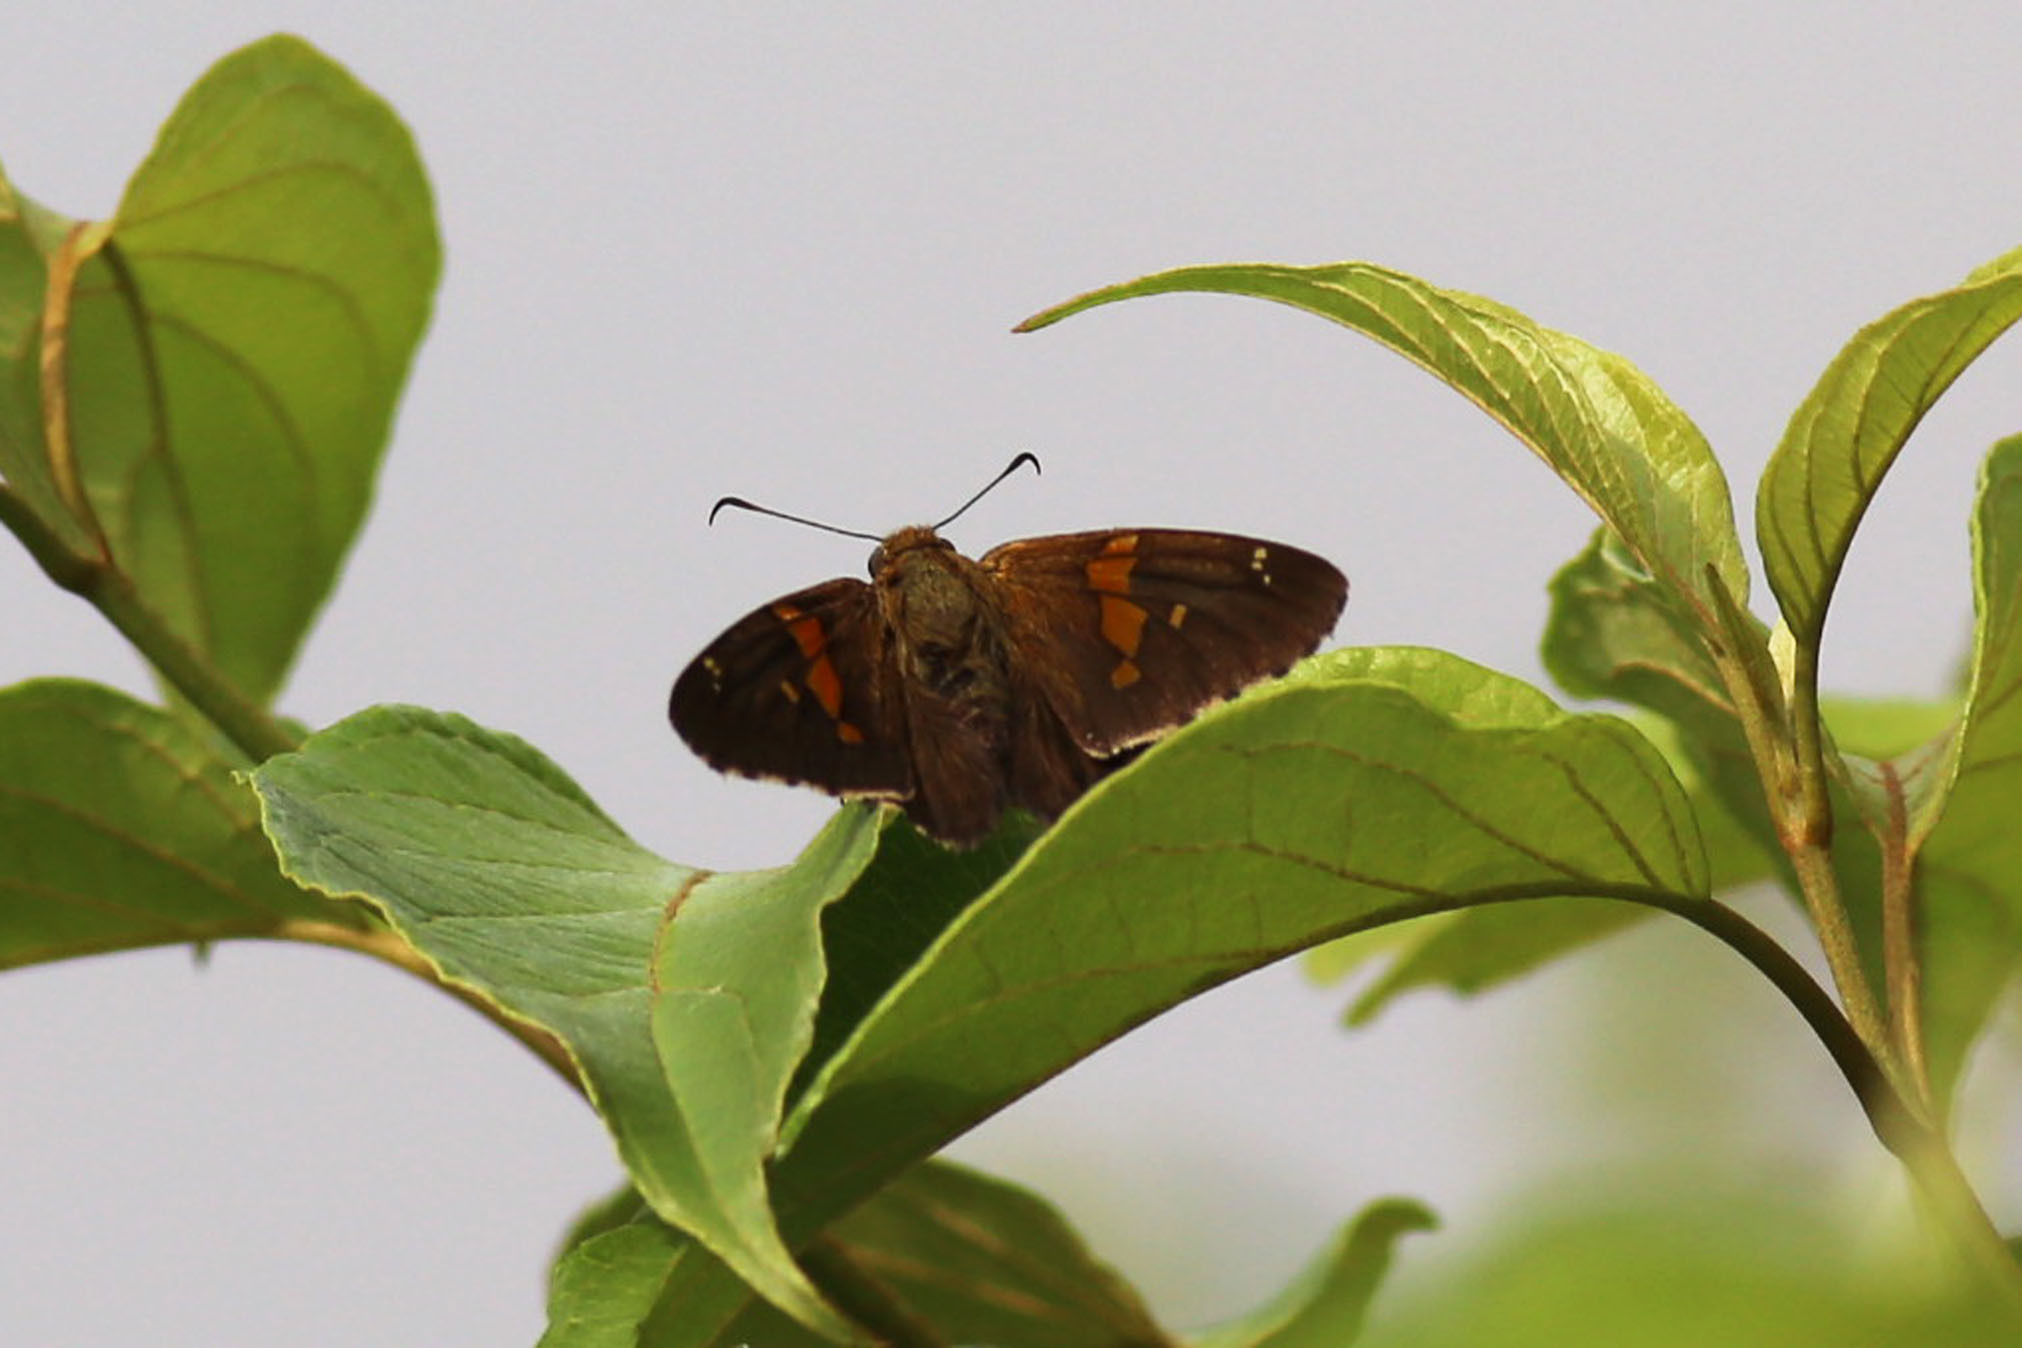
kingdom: Animalia
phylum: Arthropoda
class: Insecta
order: Lepidoptera
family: Hesperiidae
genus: Epargyreus
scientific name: Epargyreus clarus
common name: Silver-spotted skipper
